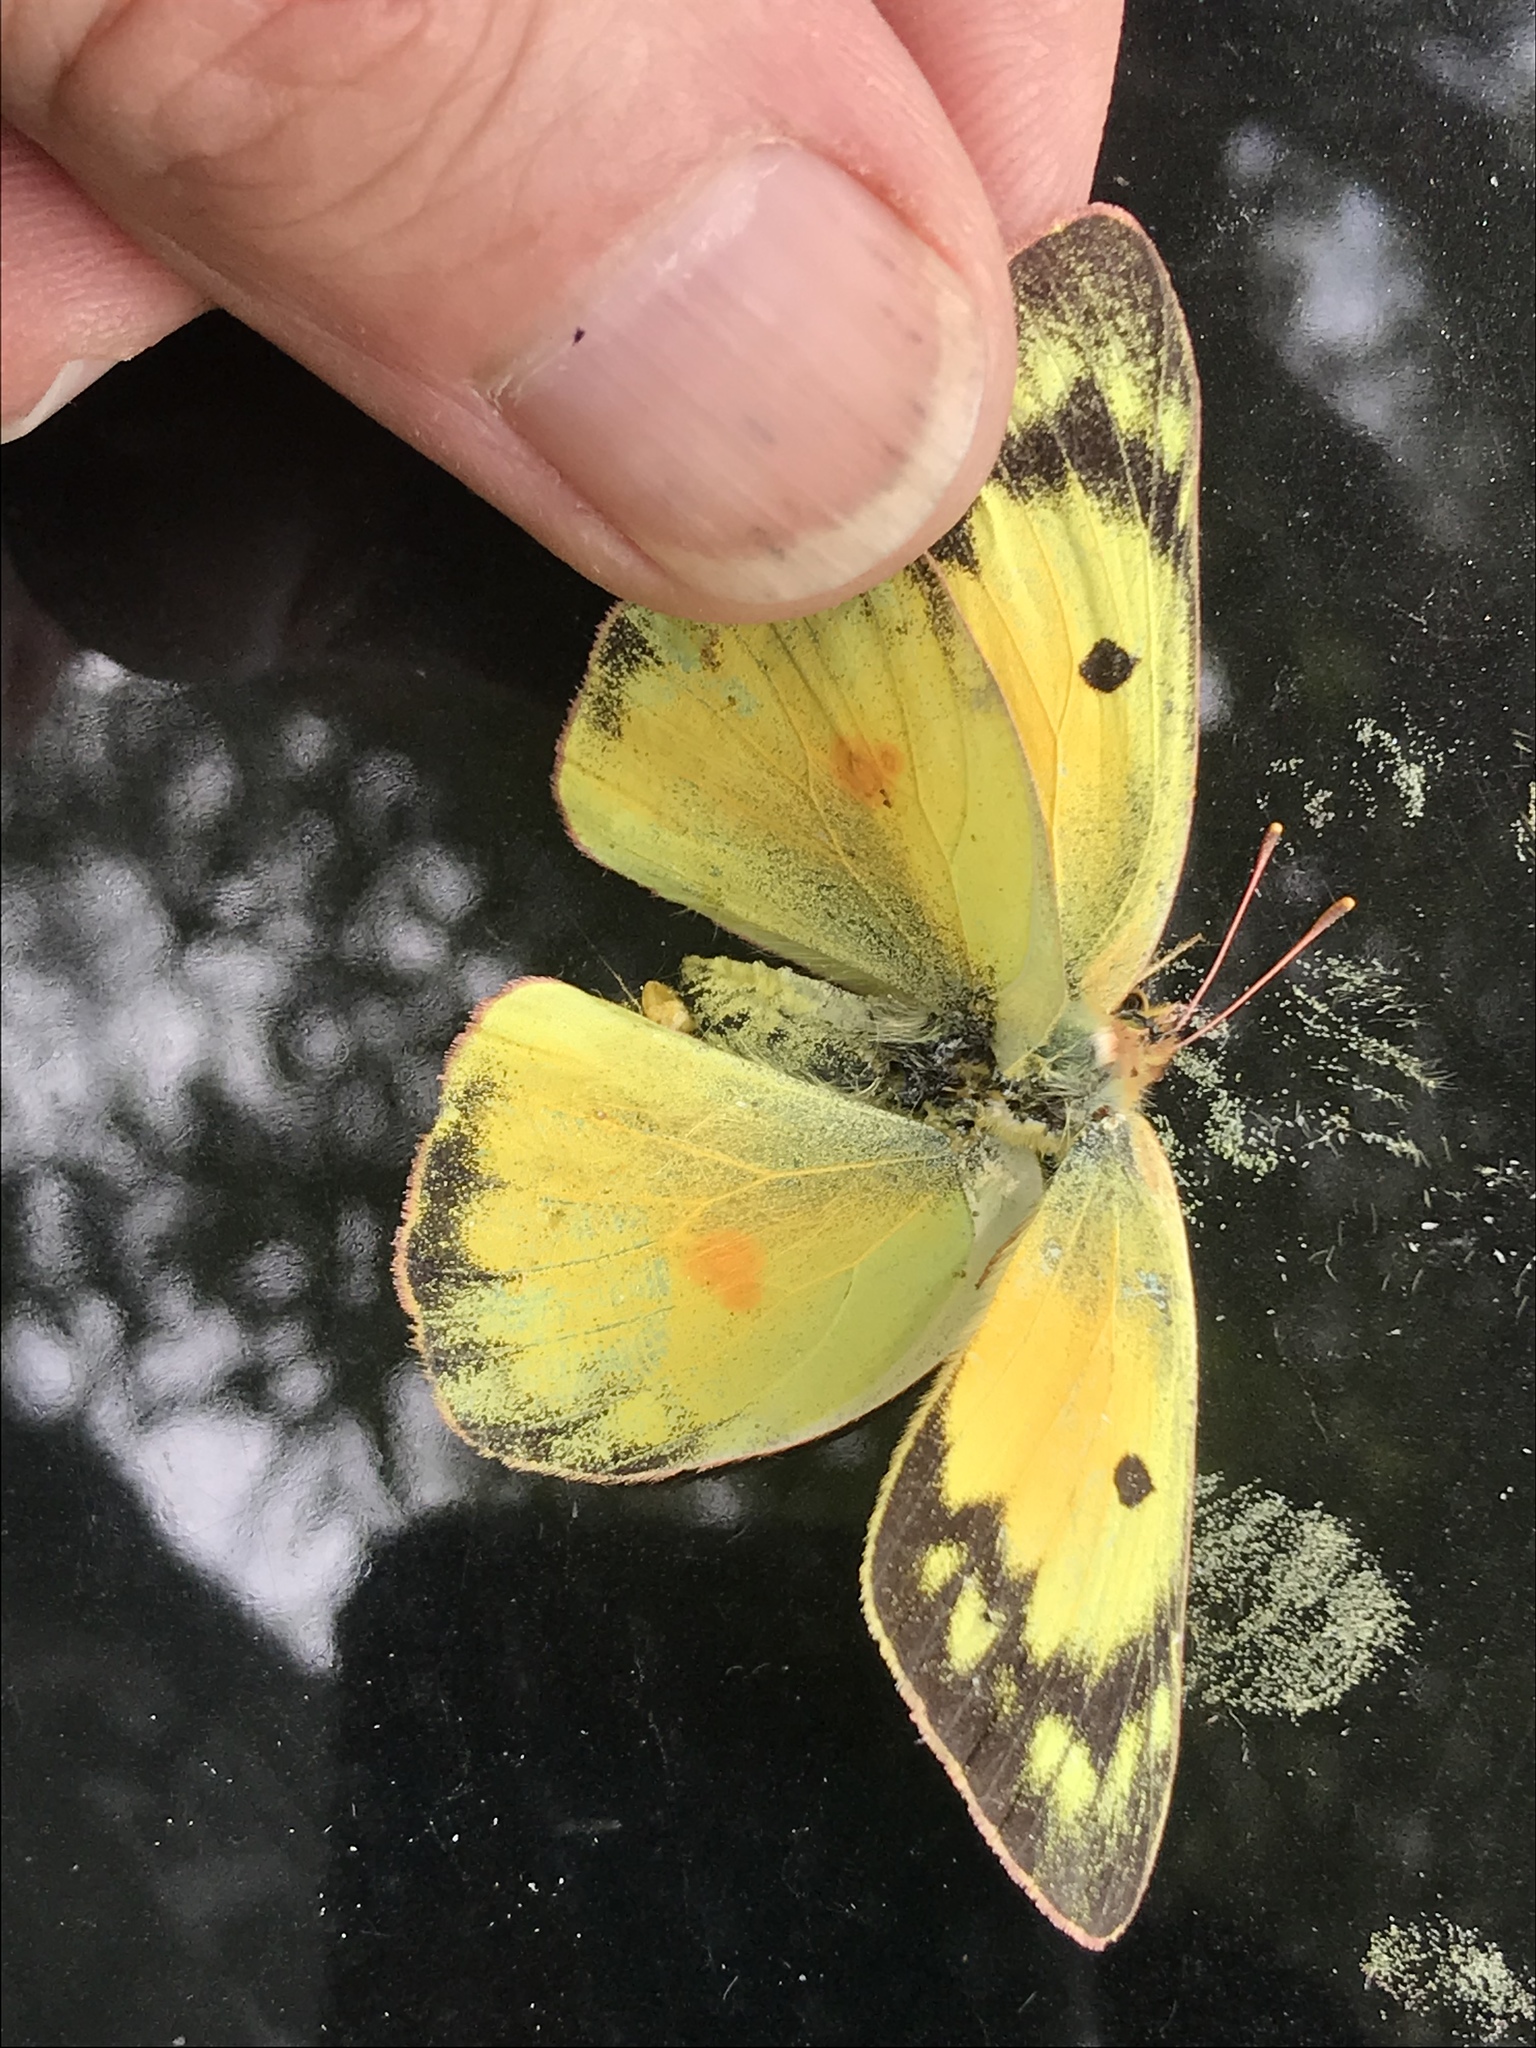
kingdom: Animalia
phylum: Arthropoda
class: Insecta
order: Lepidoptera
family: Pieridae
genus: Colias
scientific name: Colias eurytheme
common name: Alfalfa butterfly
